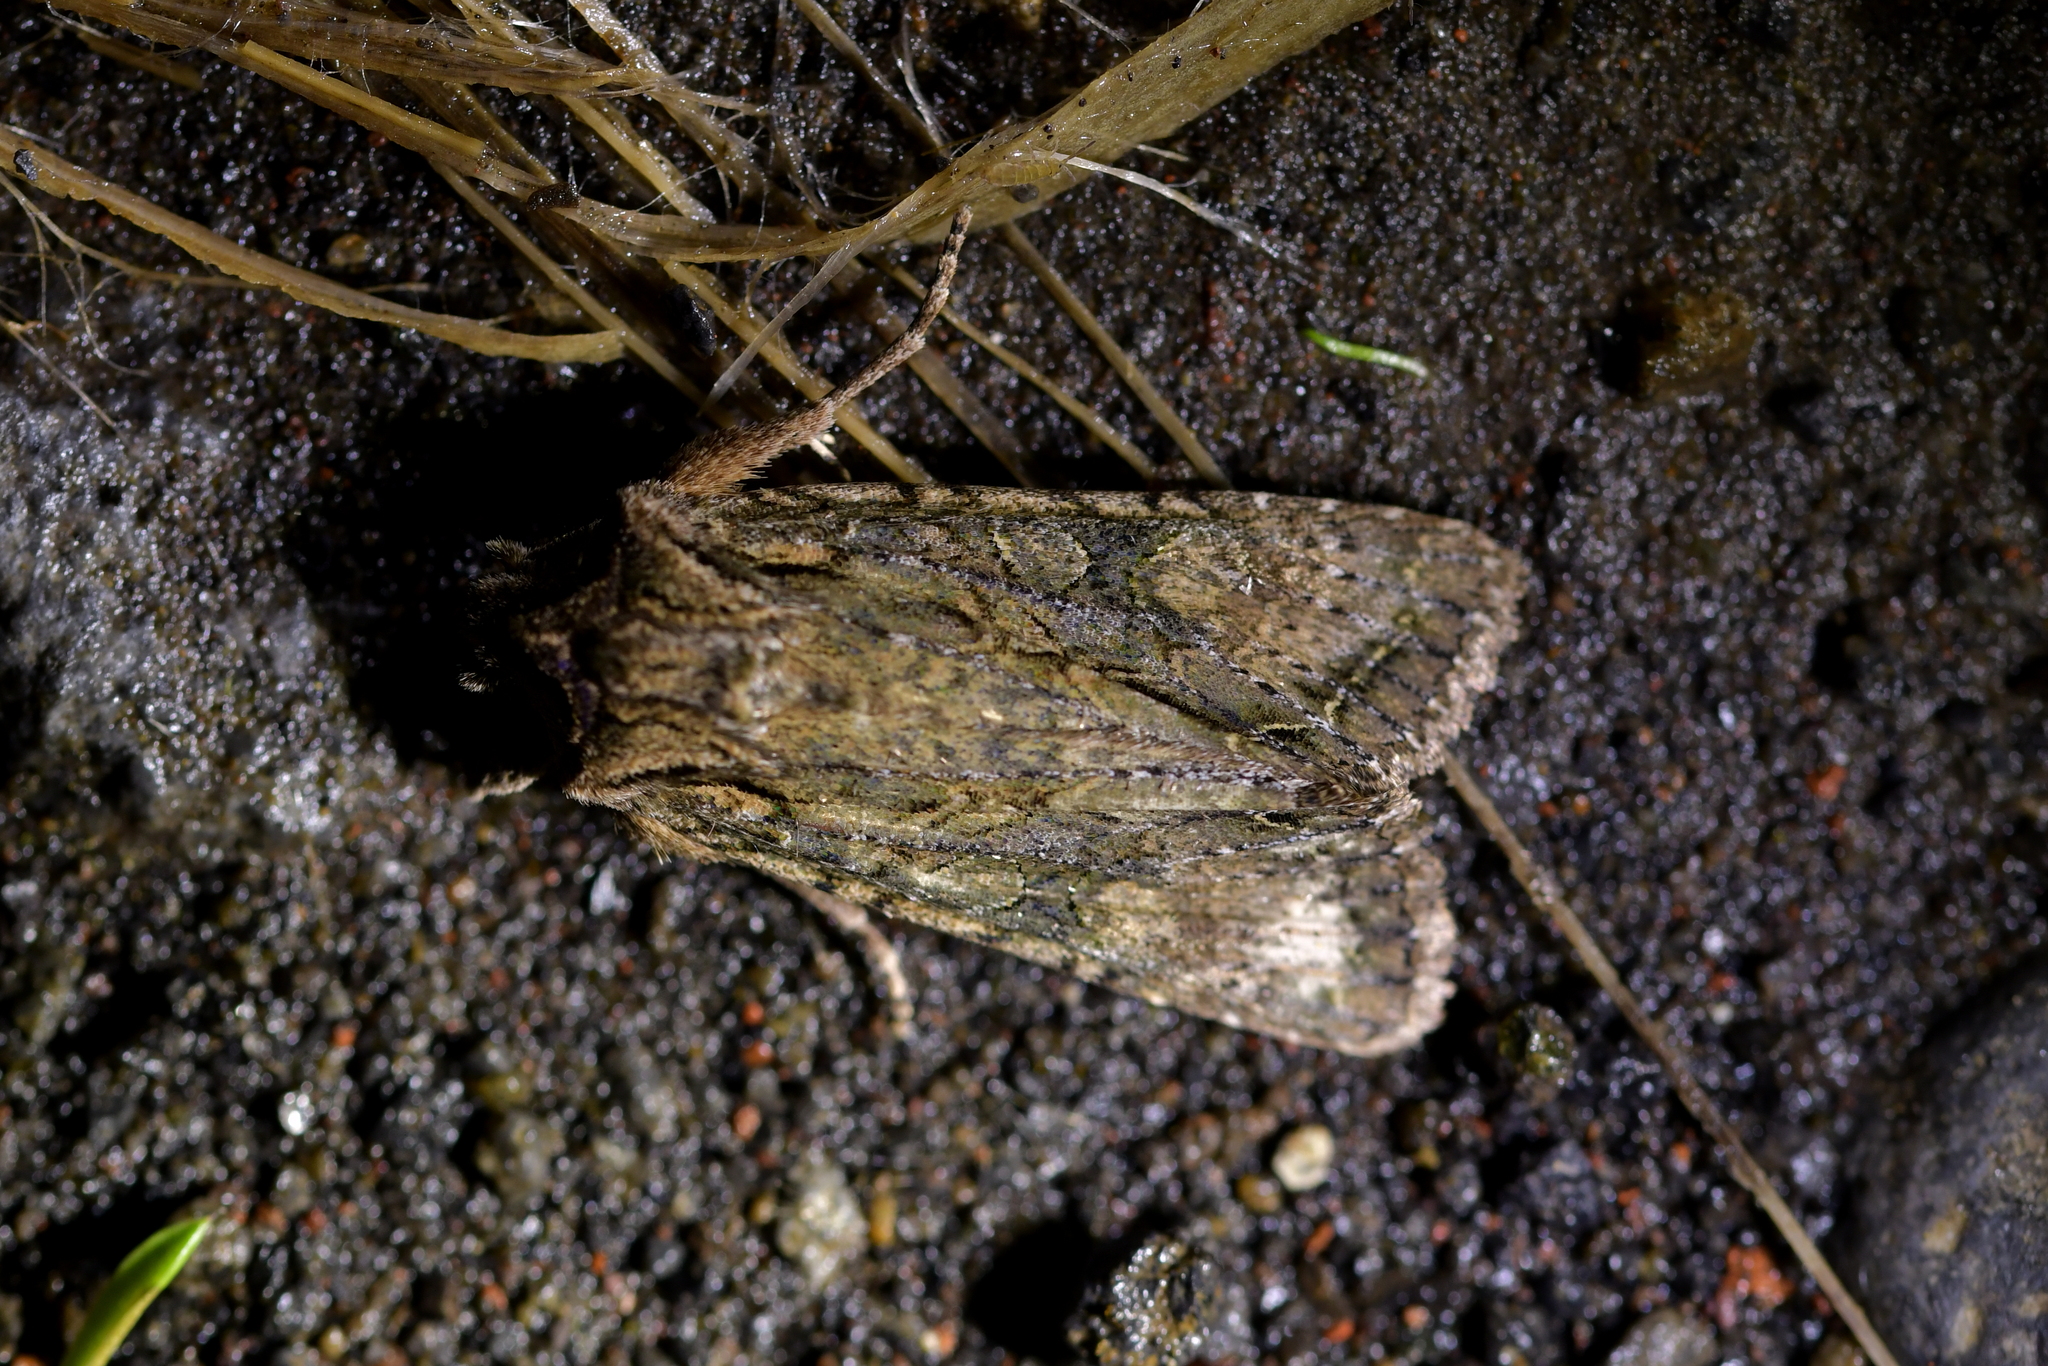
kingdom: Animalia
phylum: Arthropoda
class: Insecta
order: Lepidoptera
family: Noctuidae
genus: Ichneutica
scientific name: Ichneutica mutans
